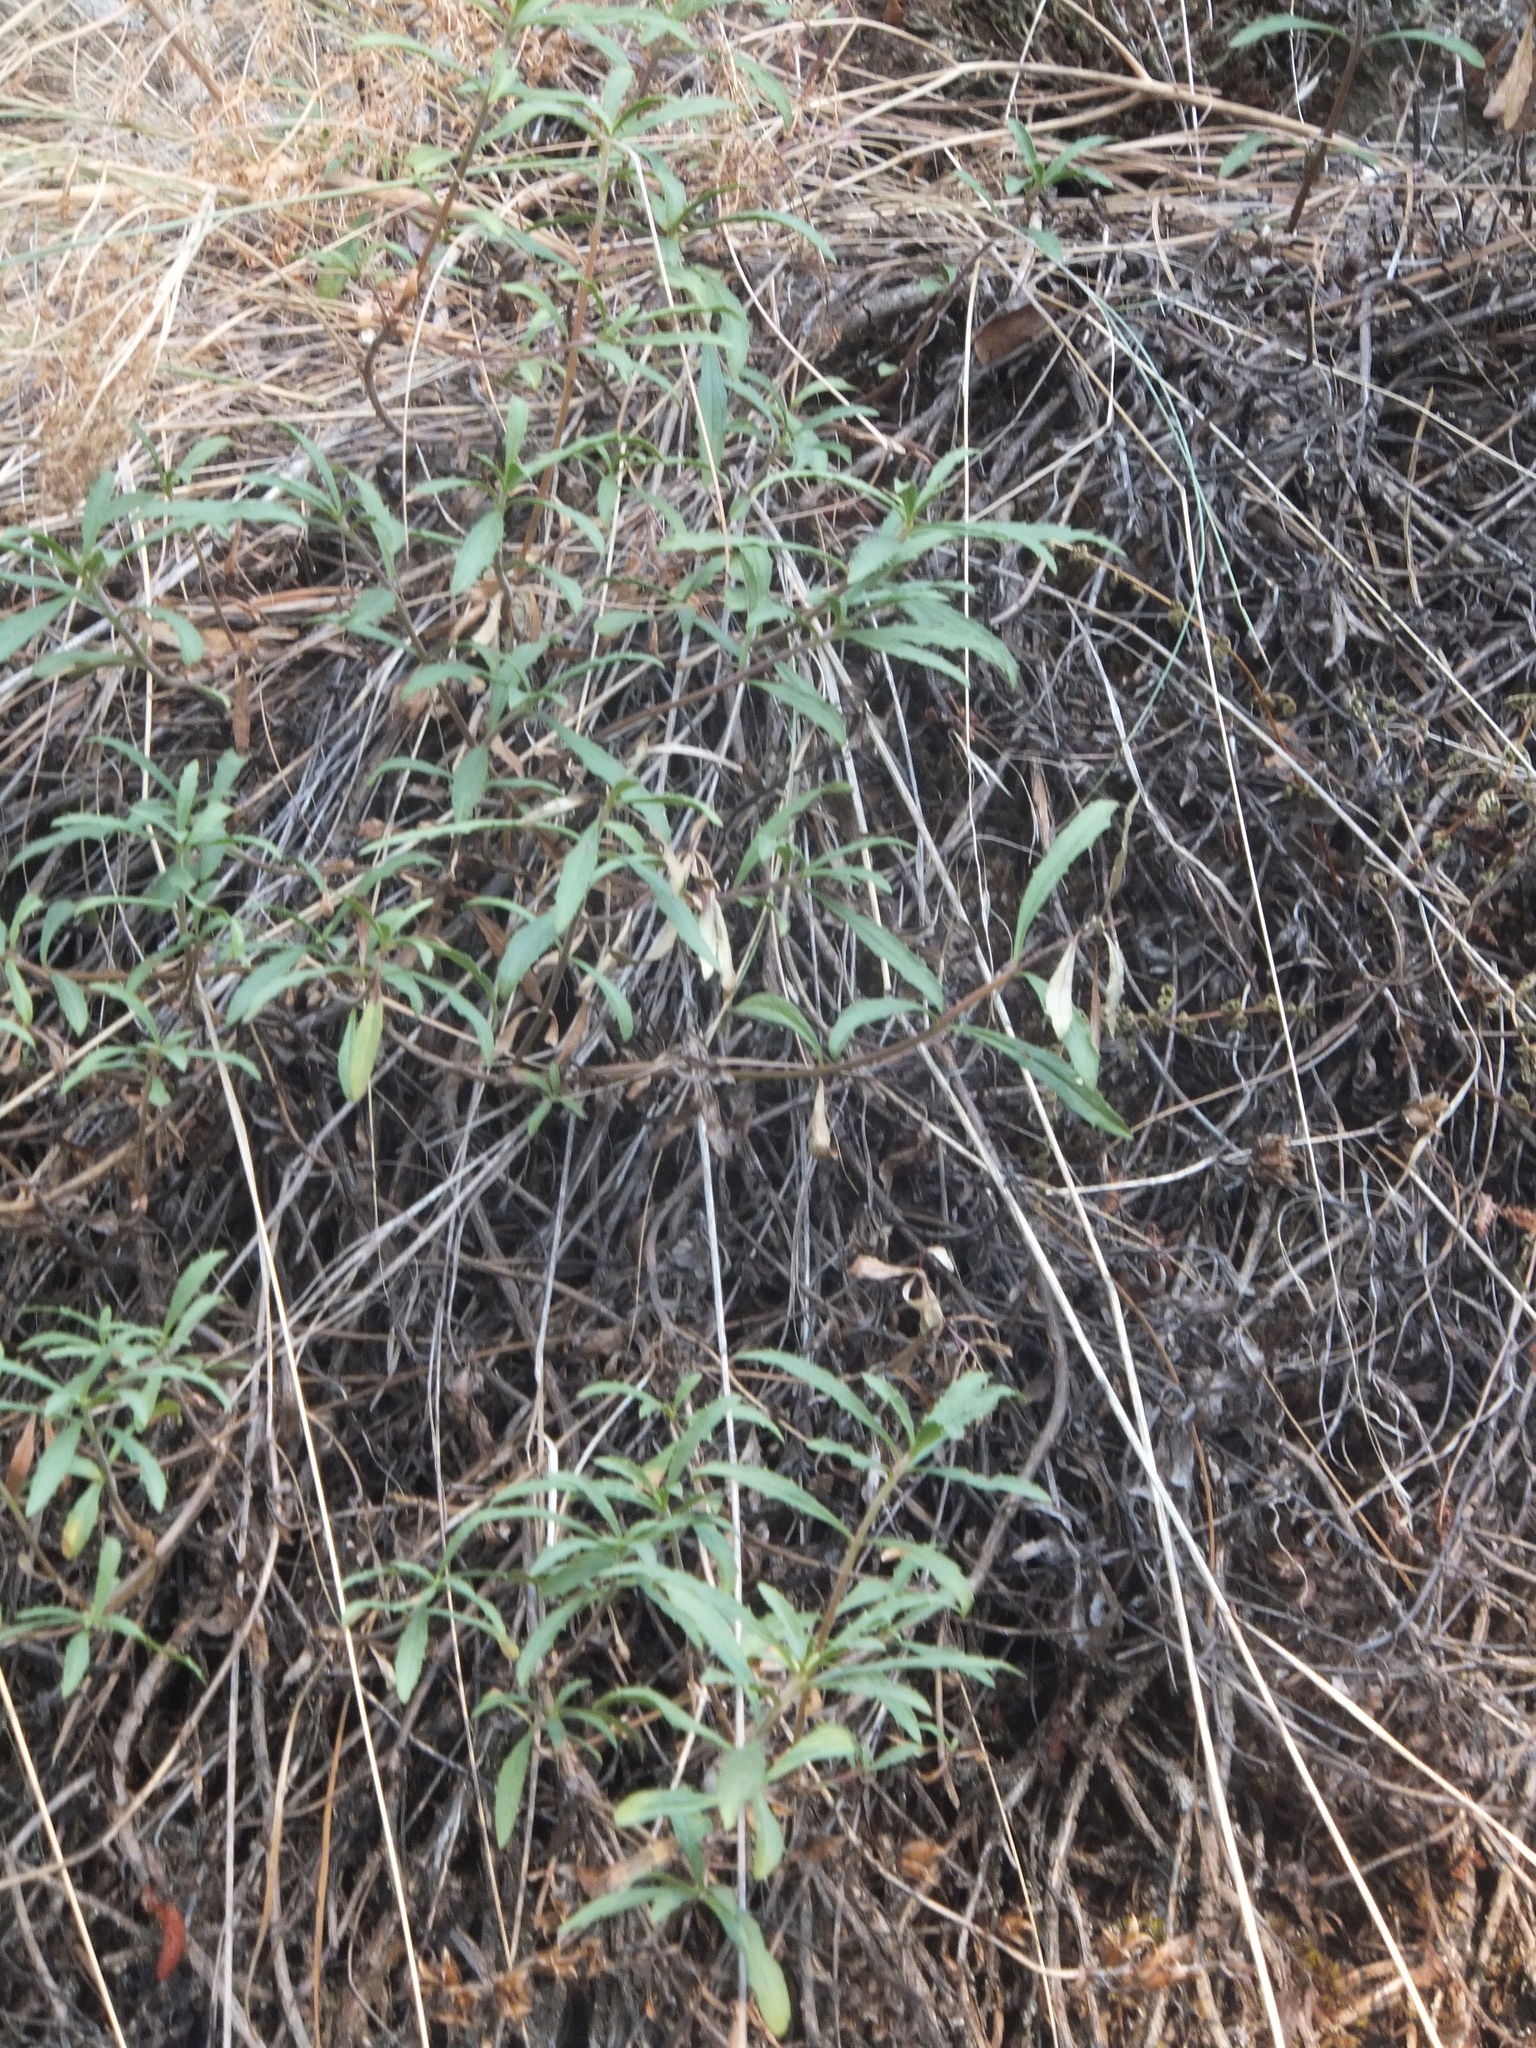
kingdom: Plantae
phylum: Tracheophyta
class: Magnoliopsida
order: Lamiales
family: Plantaginaceae
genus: Penstemon
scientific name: Penstemon fruticosus
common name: Bush penstemon
